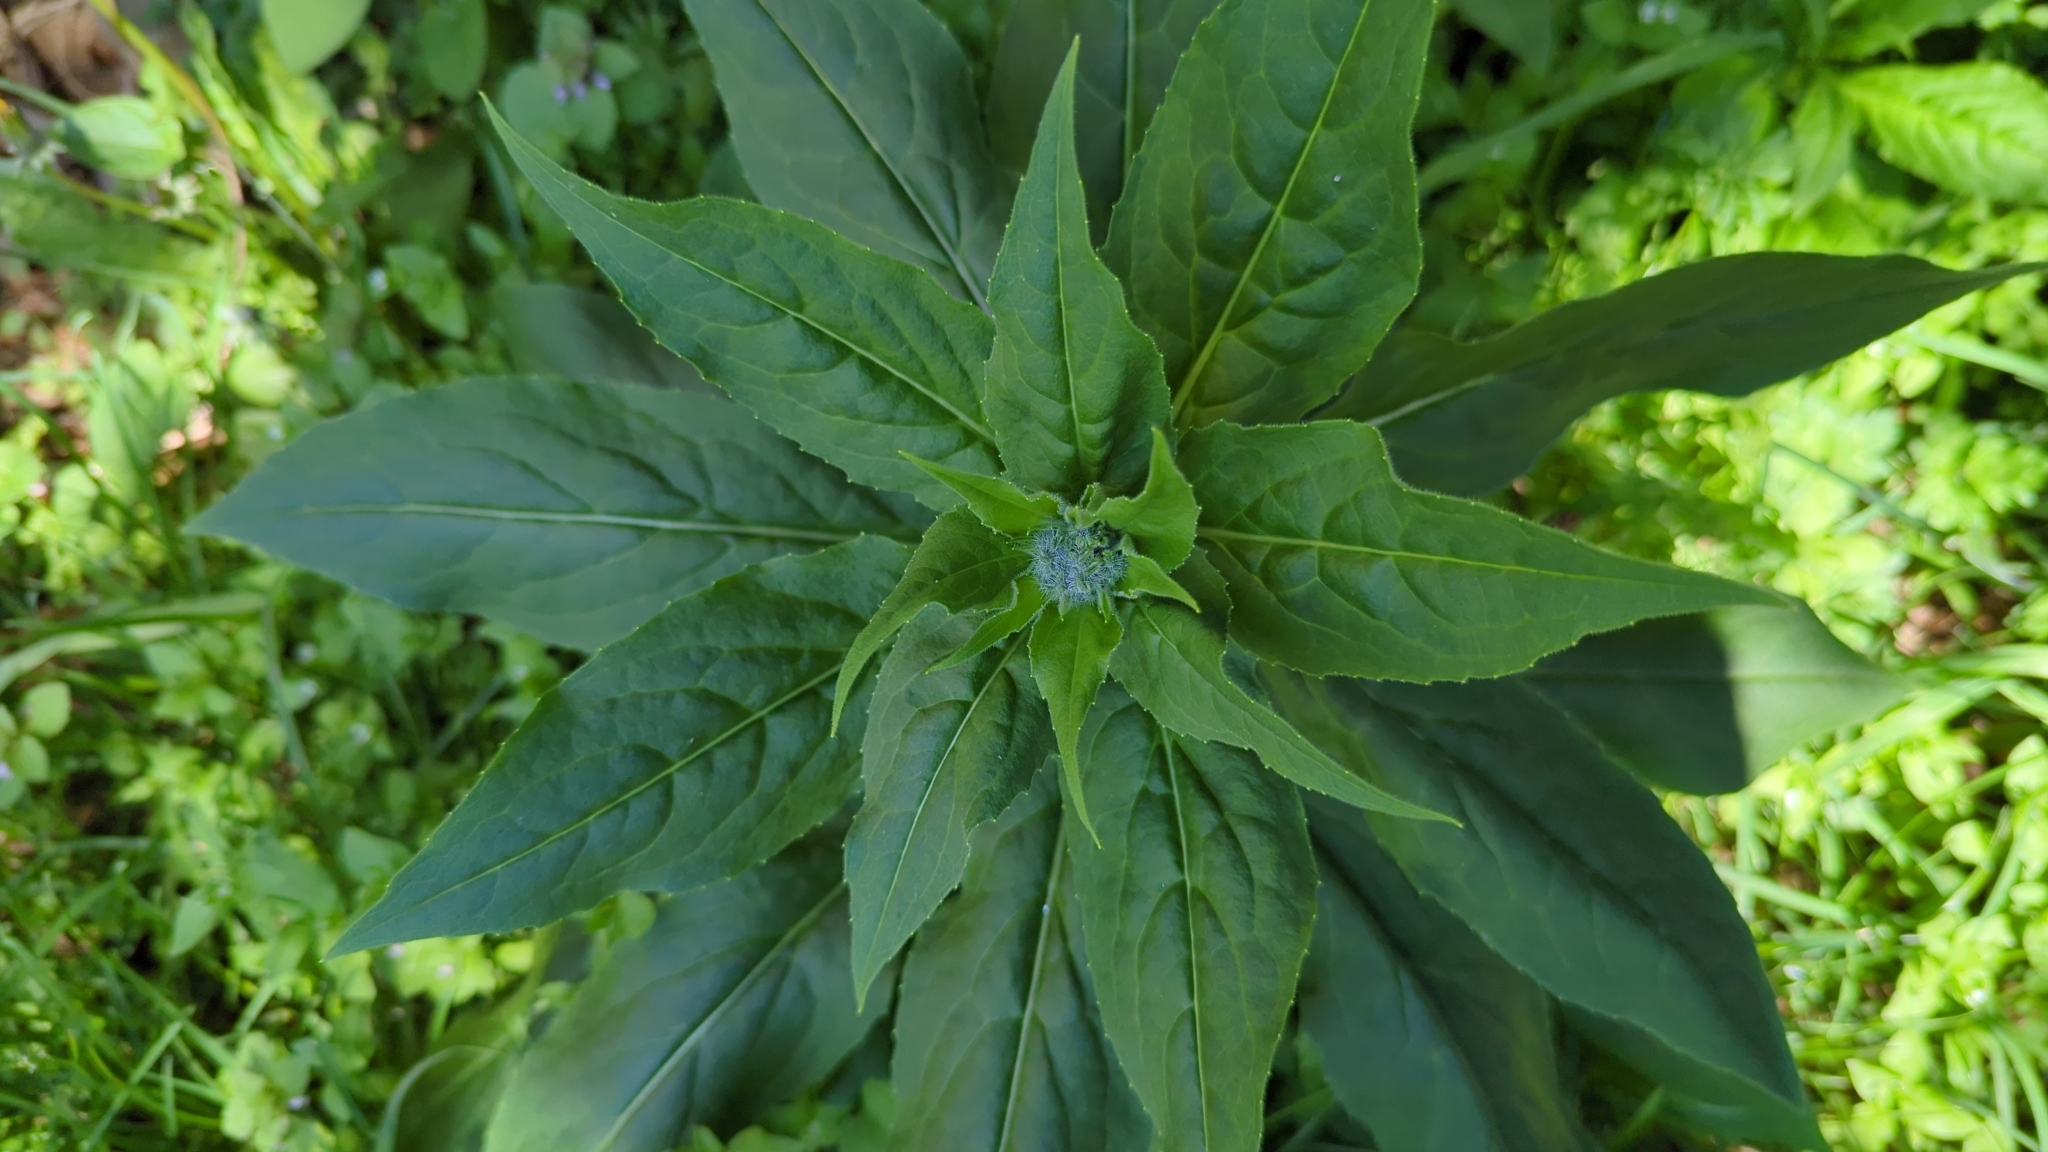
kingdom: Plantae
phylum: Tracheophyta
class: Magnoliopsida
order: Brassicales
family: Brassicaceae
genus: Hesperis
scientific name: Hesperis matronalis
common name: Dame's-violet
